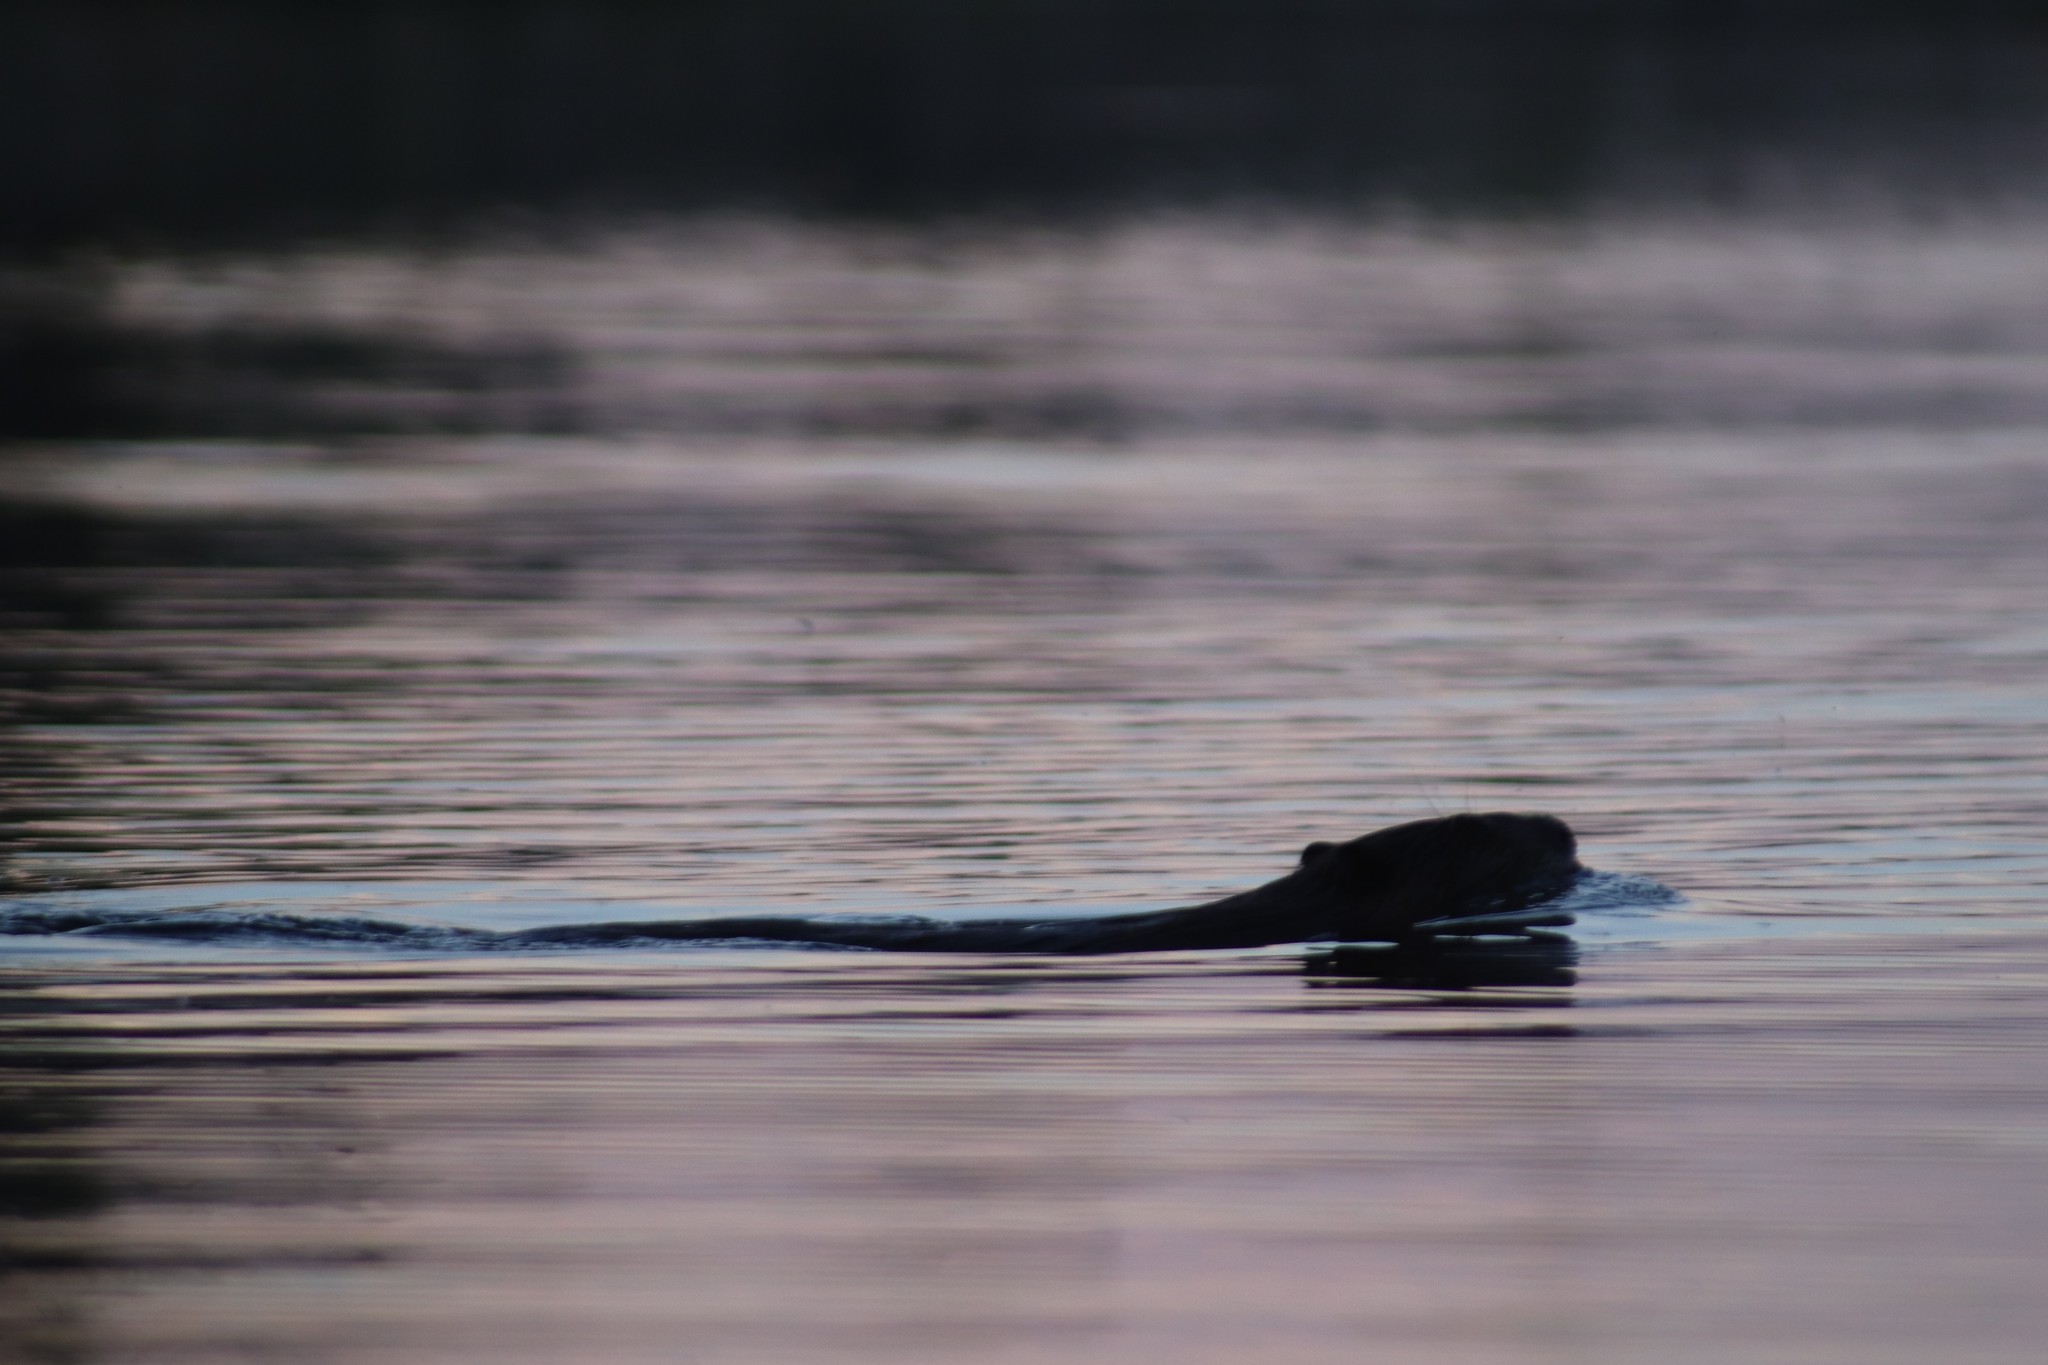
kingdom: Animalia
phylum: Chordata
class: Mammalia
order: Rodentia
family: Castoridae
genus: Castor
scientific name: Castor canadensis
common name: American beaver
